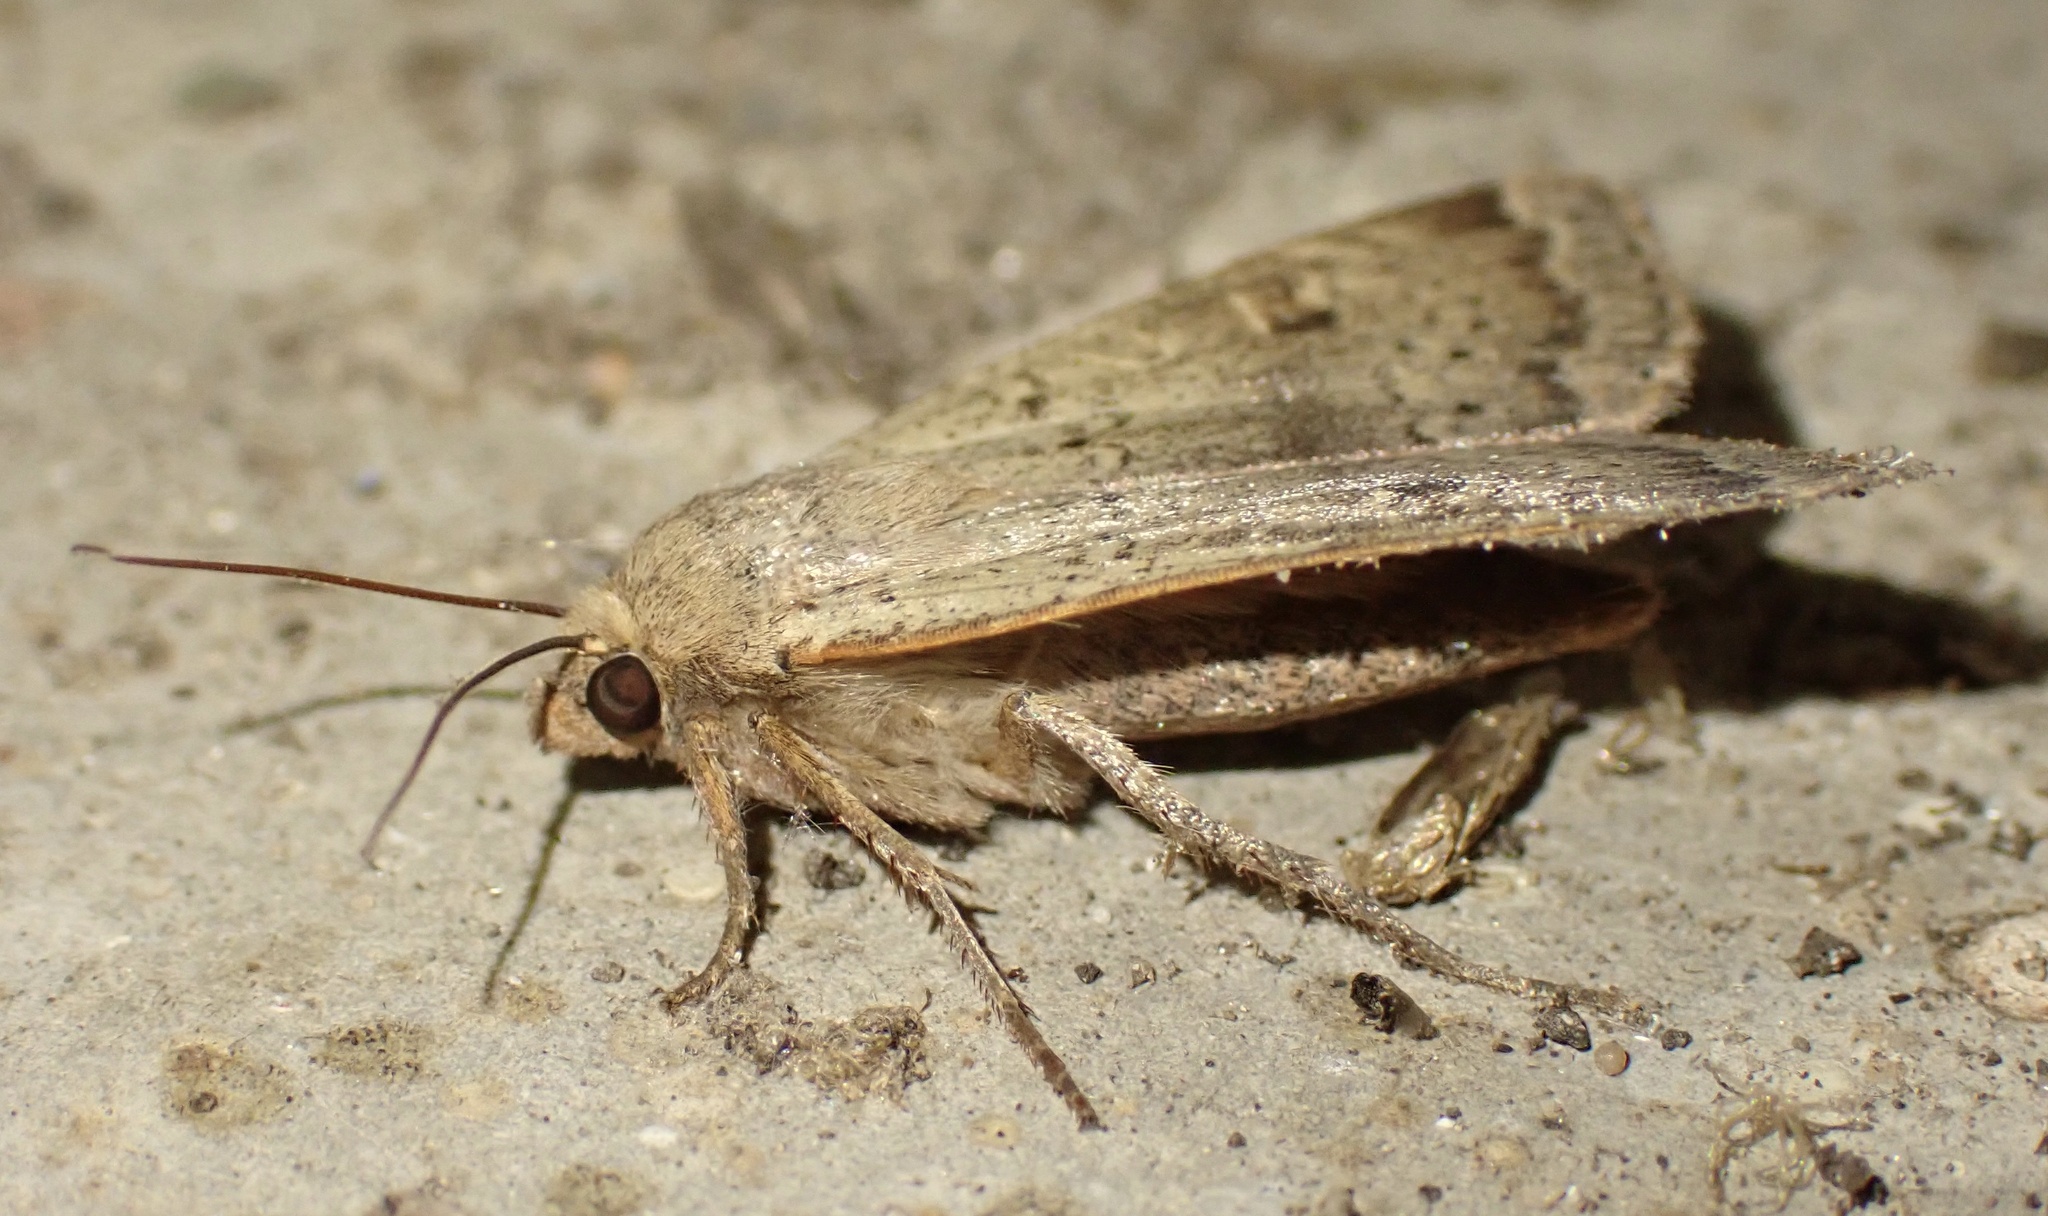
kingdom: Animalia
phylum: Arthropoda
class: Insecta
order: Lepidoptera
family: Noctuidae
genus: Noctua
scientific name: Noctua comes
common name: Lesser yellow underwing
